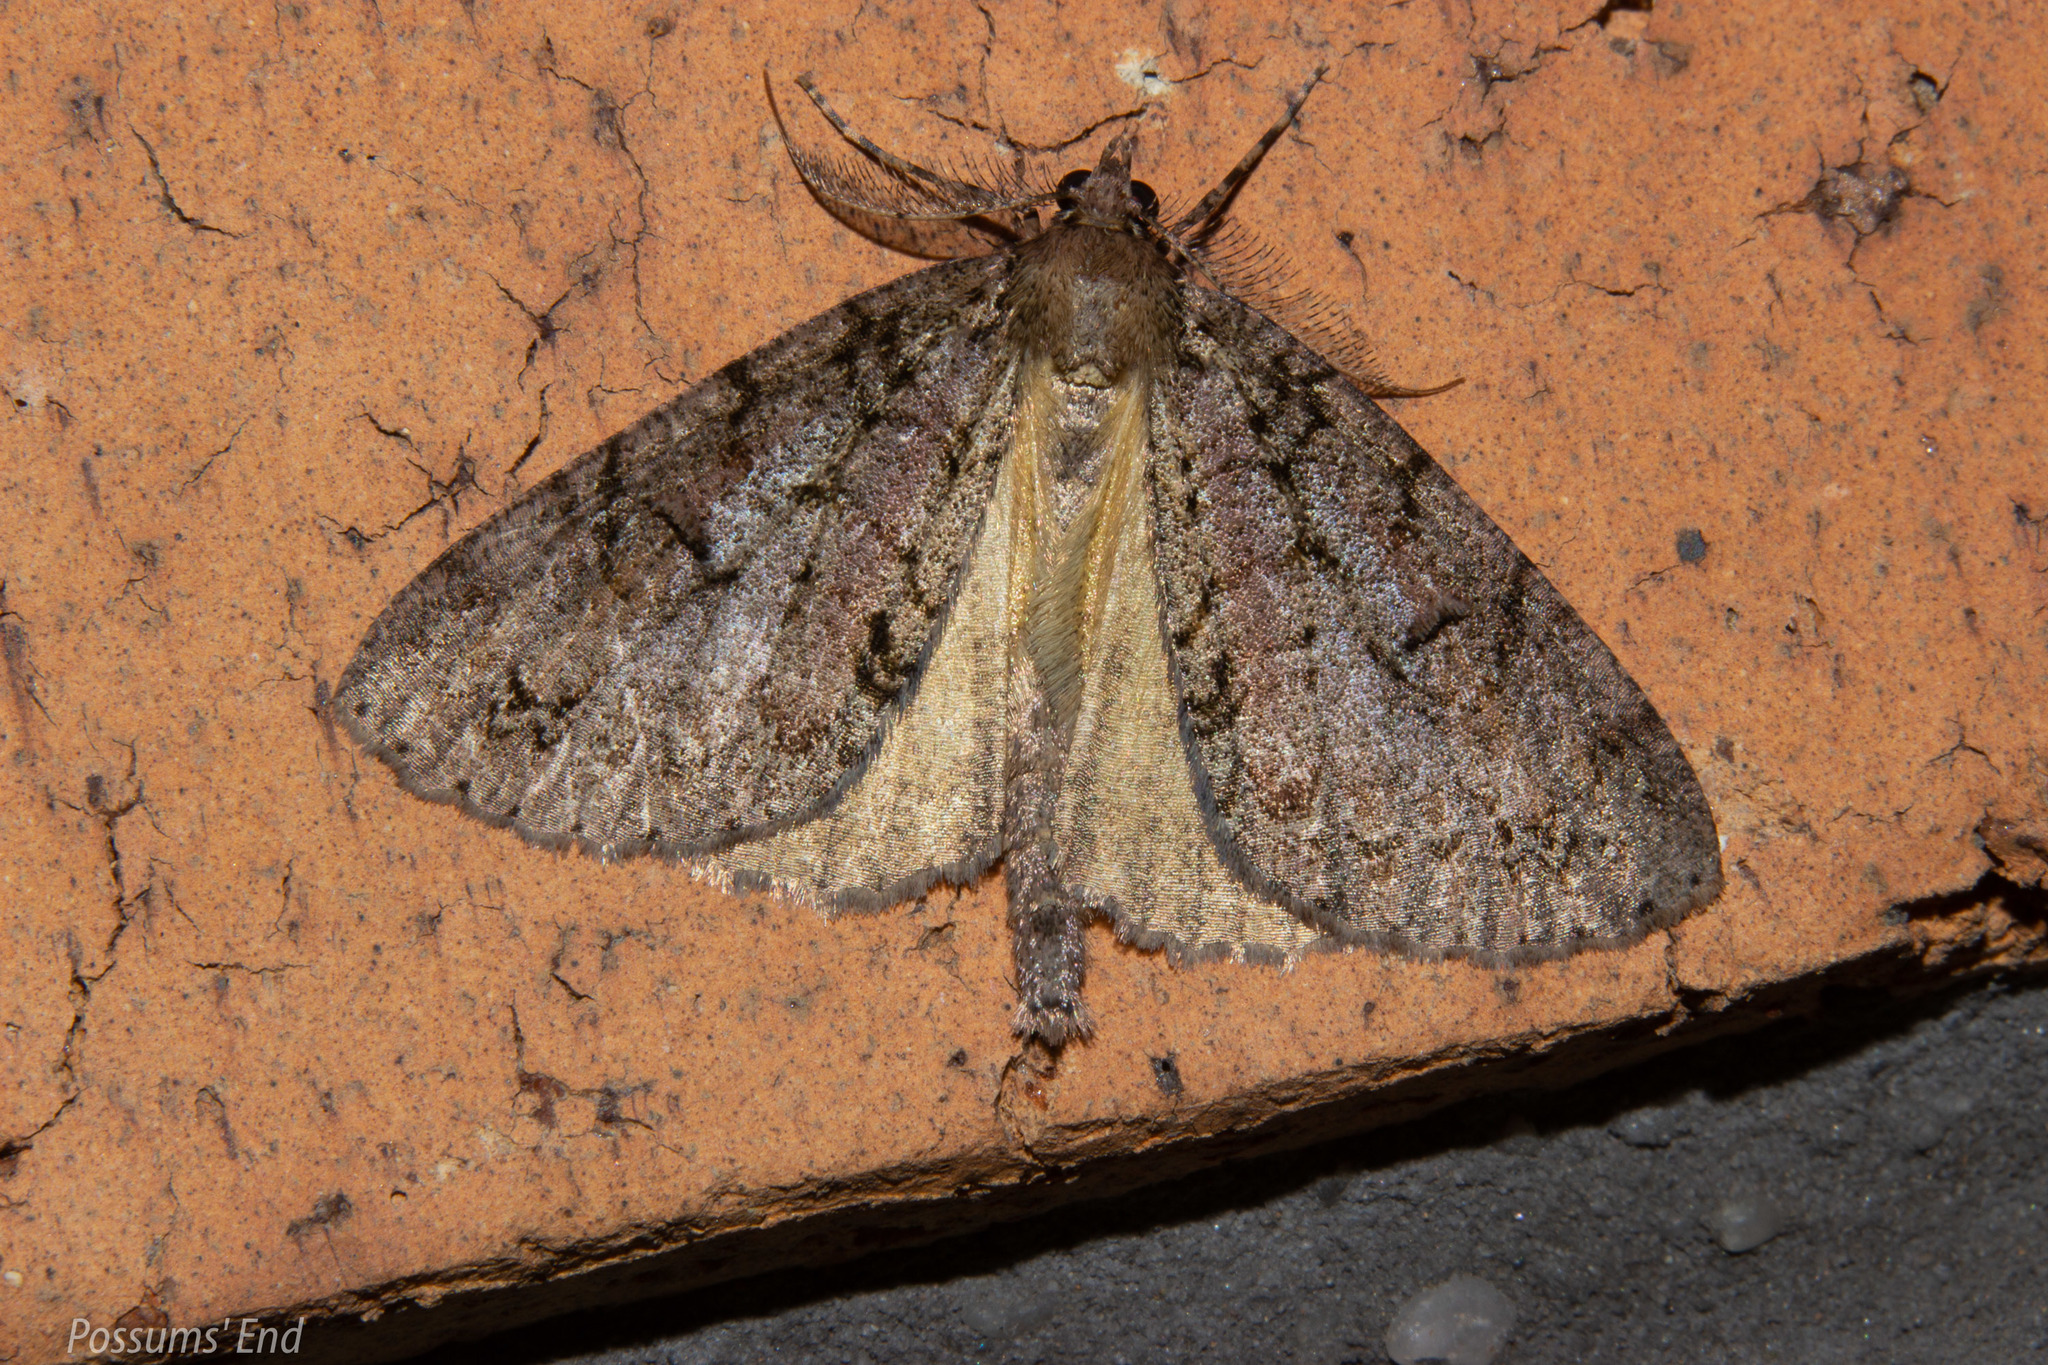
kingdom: Animalia
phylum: Arthropoda
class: Insecta
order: Lepidoptera
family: Geometridae
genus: Pseudocoremia
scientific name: Pseudocoremia suavis
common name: Common forest looper
